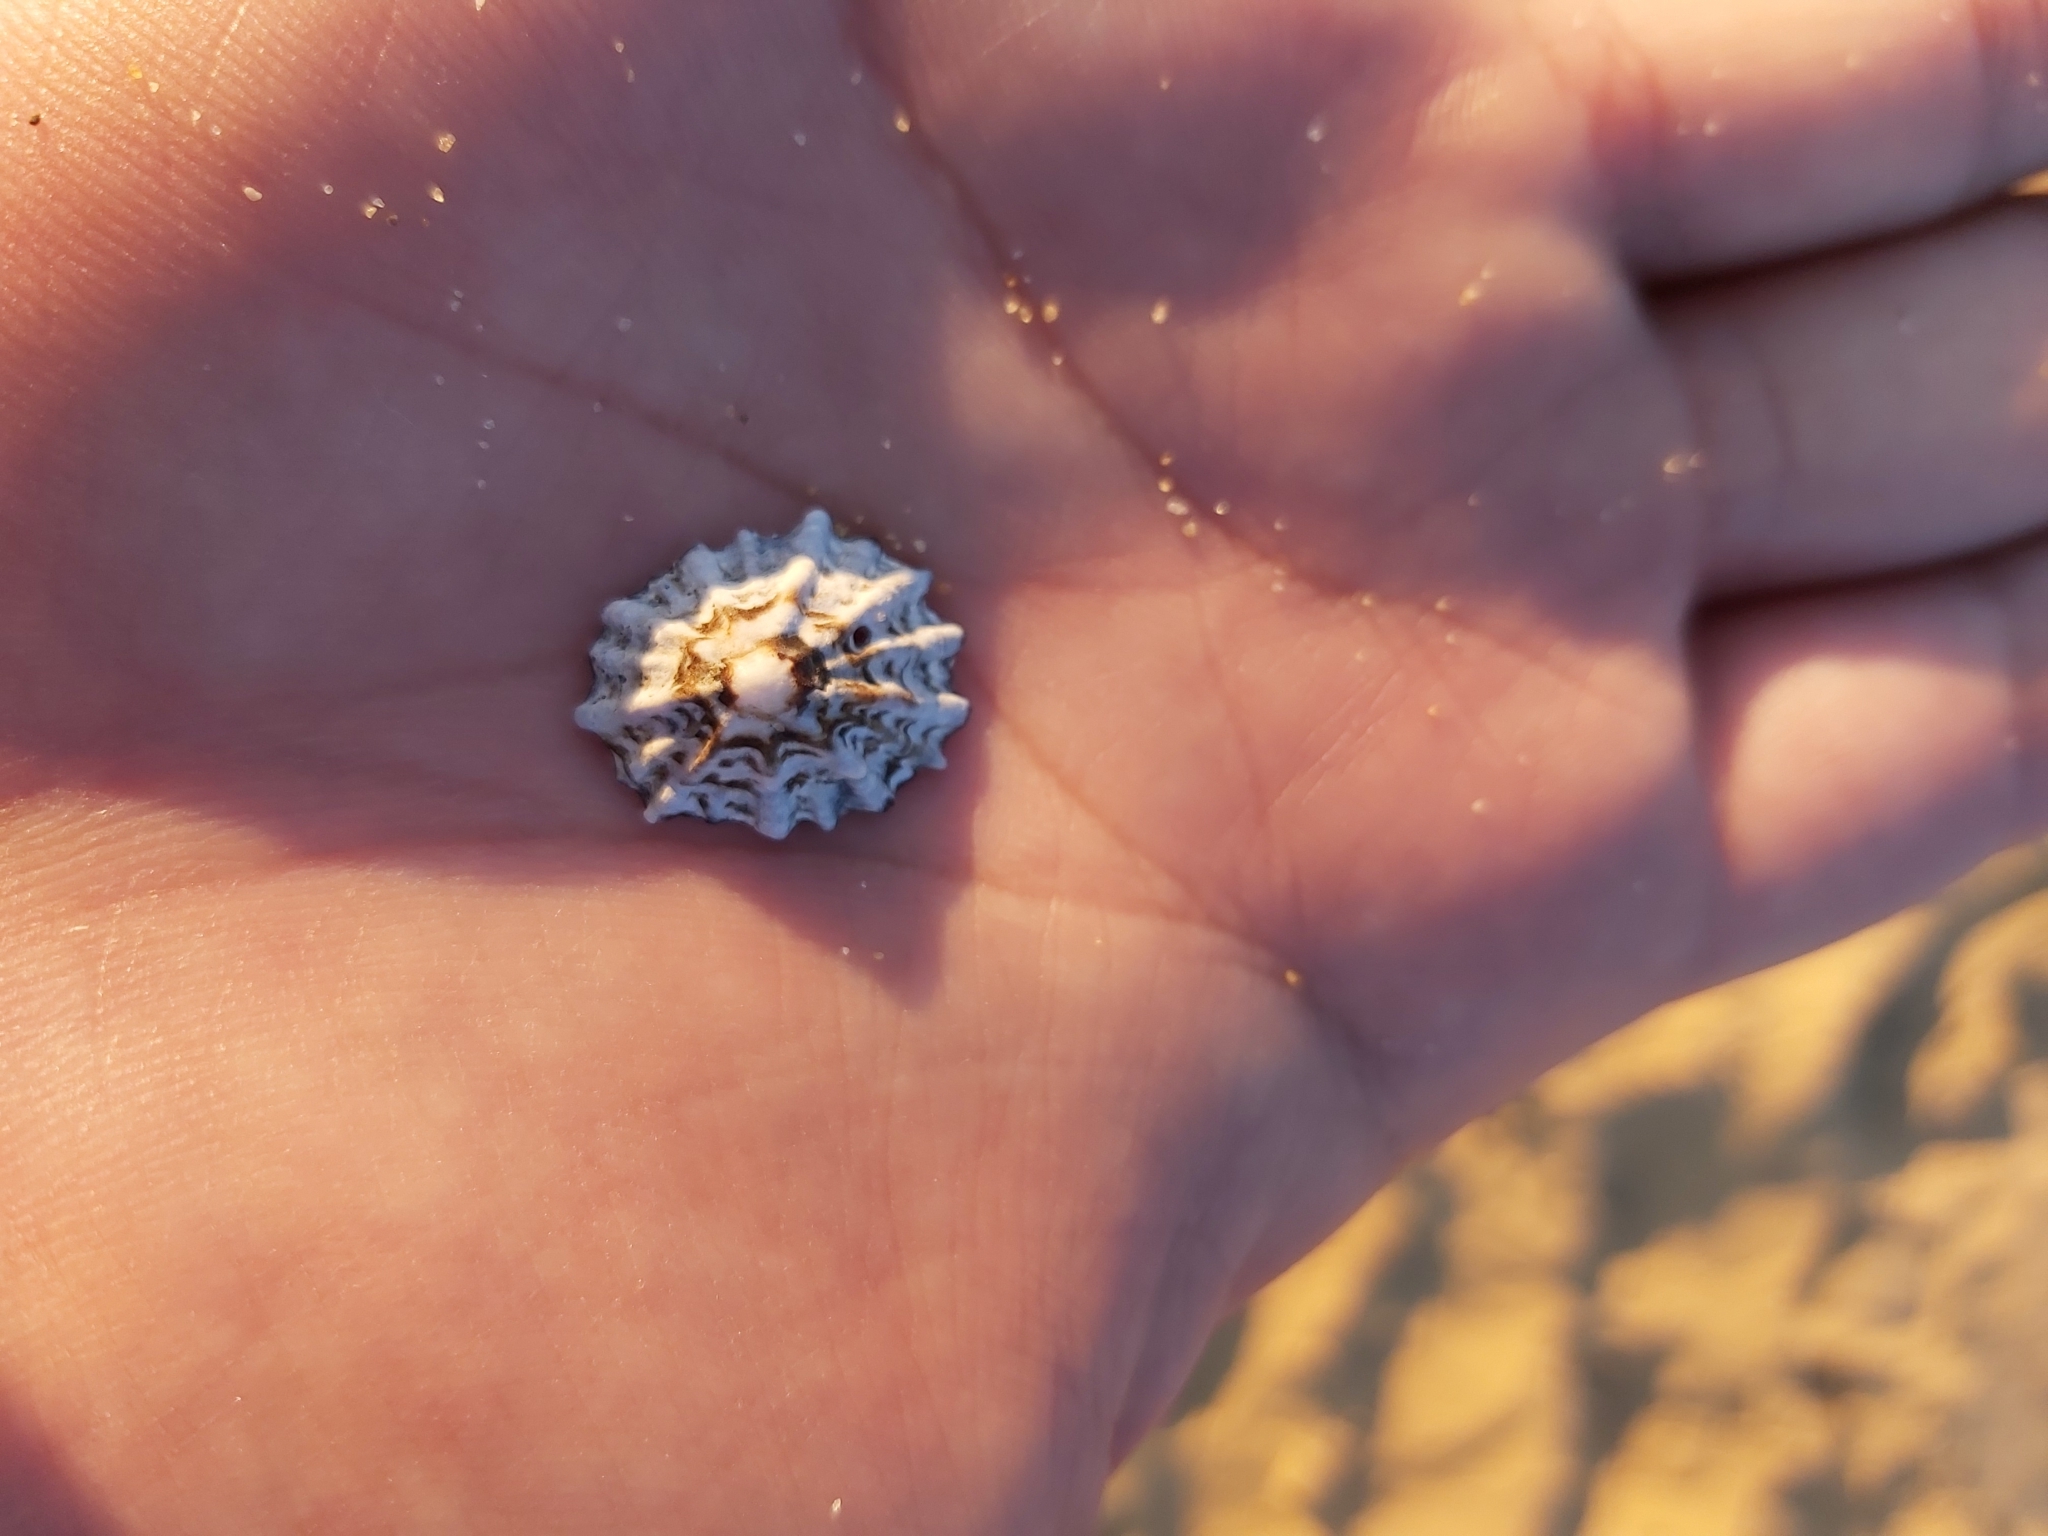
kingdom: Animalia
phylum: Mollusca
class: Gastropoda
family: Lottiidae
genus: Patelloida
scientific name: Patelloida alticostata
